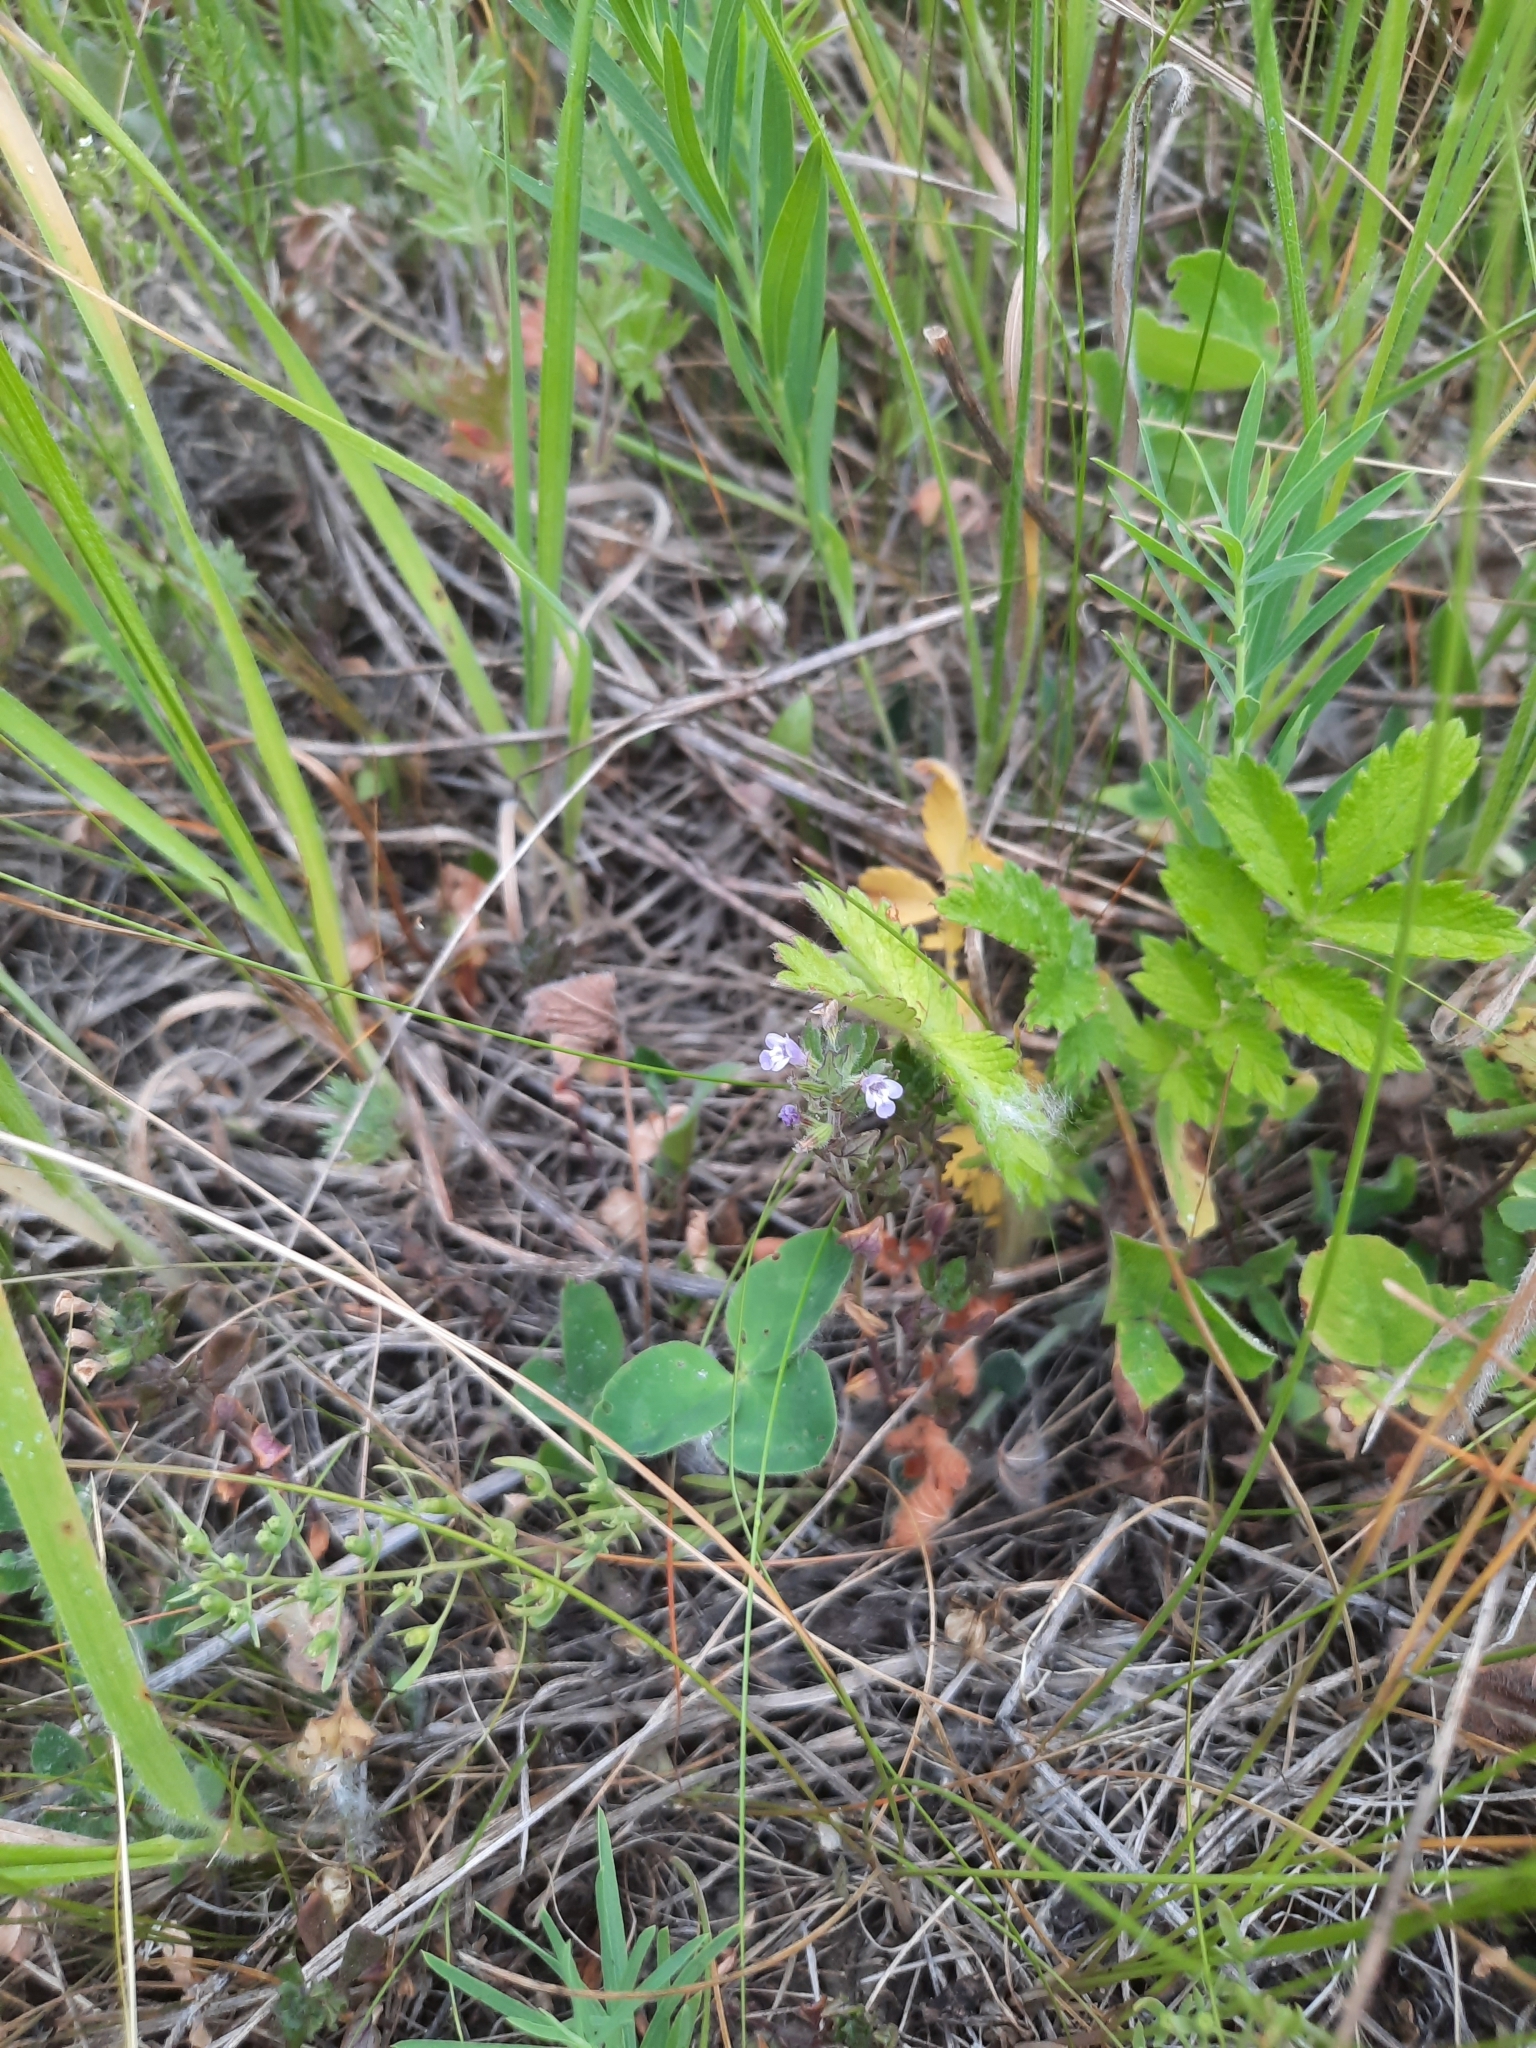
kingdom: Plantae
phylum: Tracheophyta
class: Magnoliopsida
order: Lamiales
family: Lamiaceae
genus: Clinopodium
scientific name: Clinopodium acinos
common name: Basil thyme
